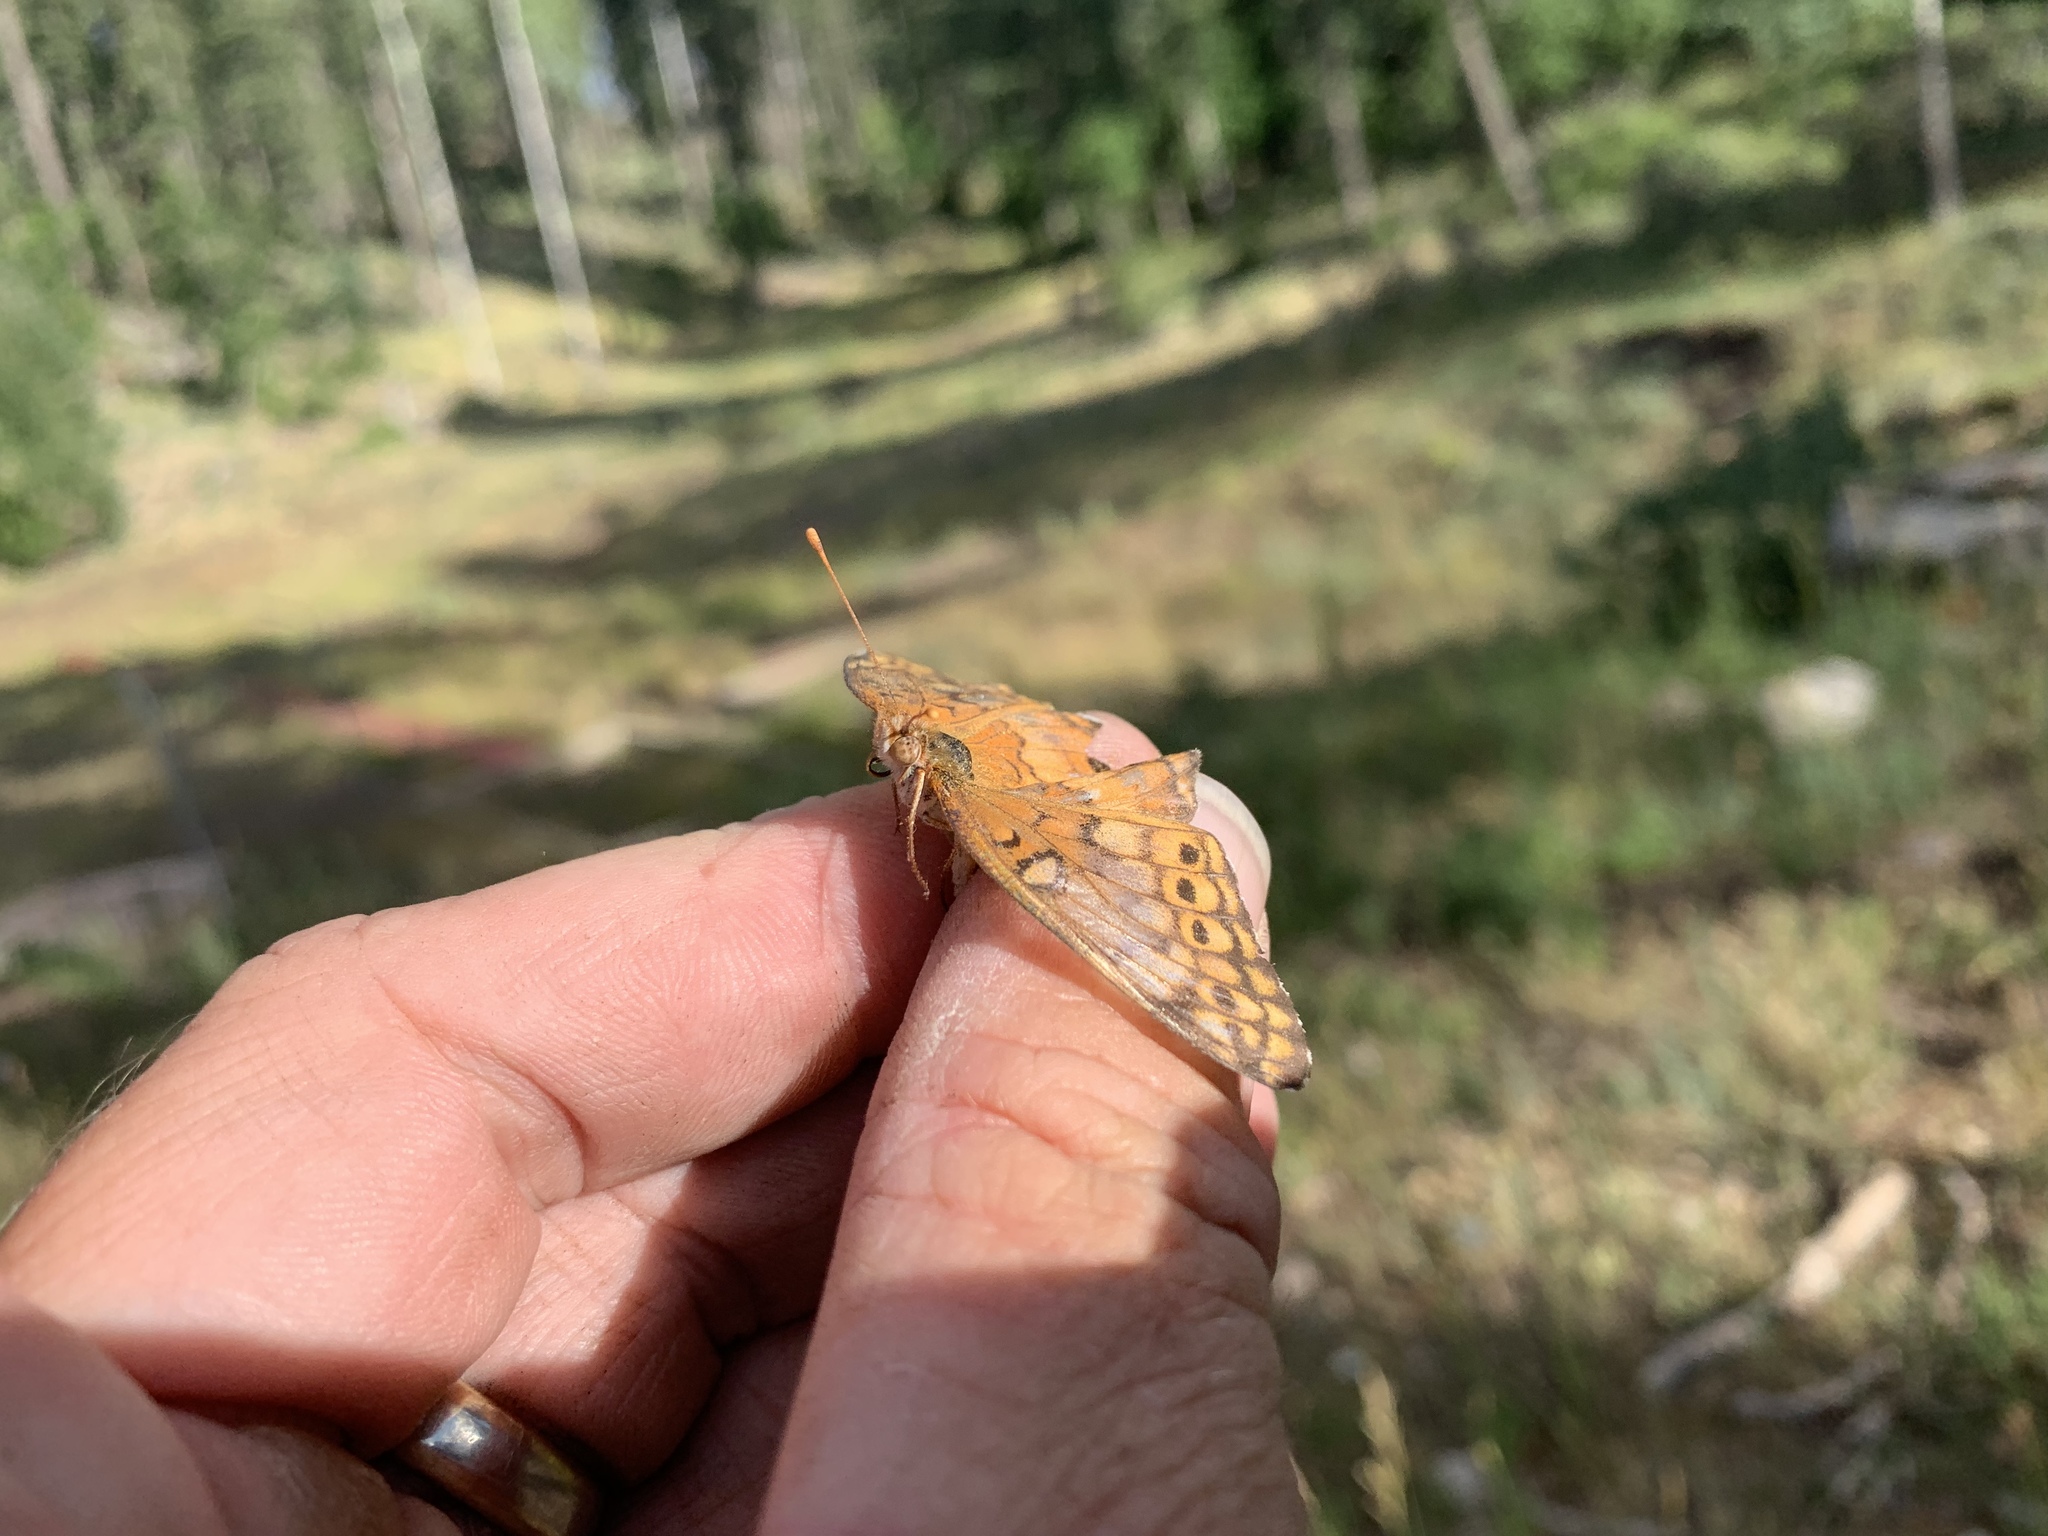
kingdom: Animalia
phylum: Arthropoda
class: Insecta
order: Lepidoptera
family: Nymphalidae
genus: Euptoieta
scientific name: Euptoieta claudia
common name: Variegated fritillary
